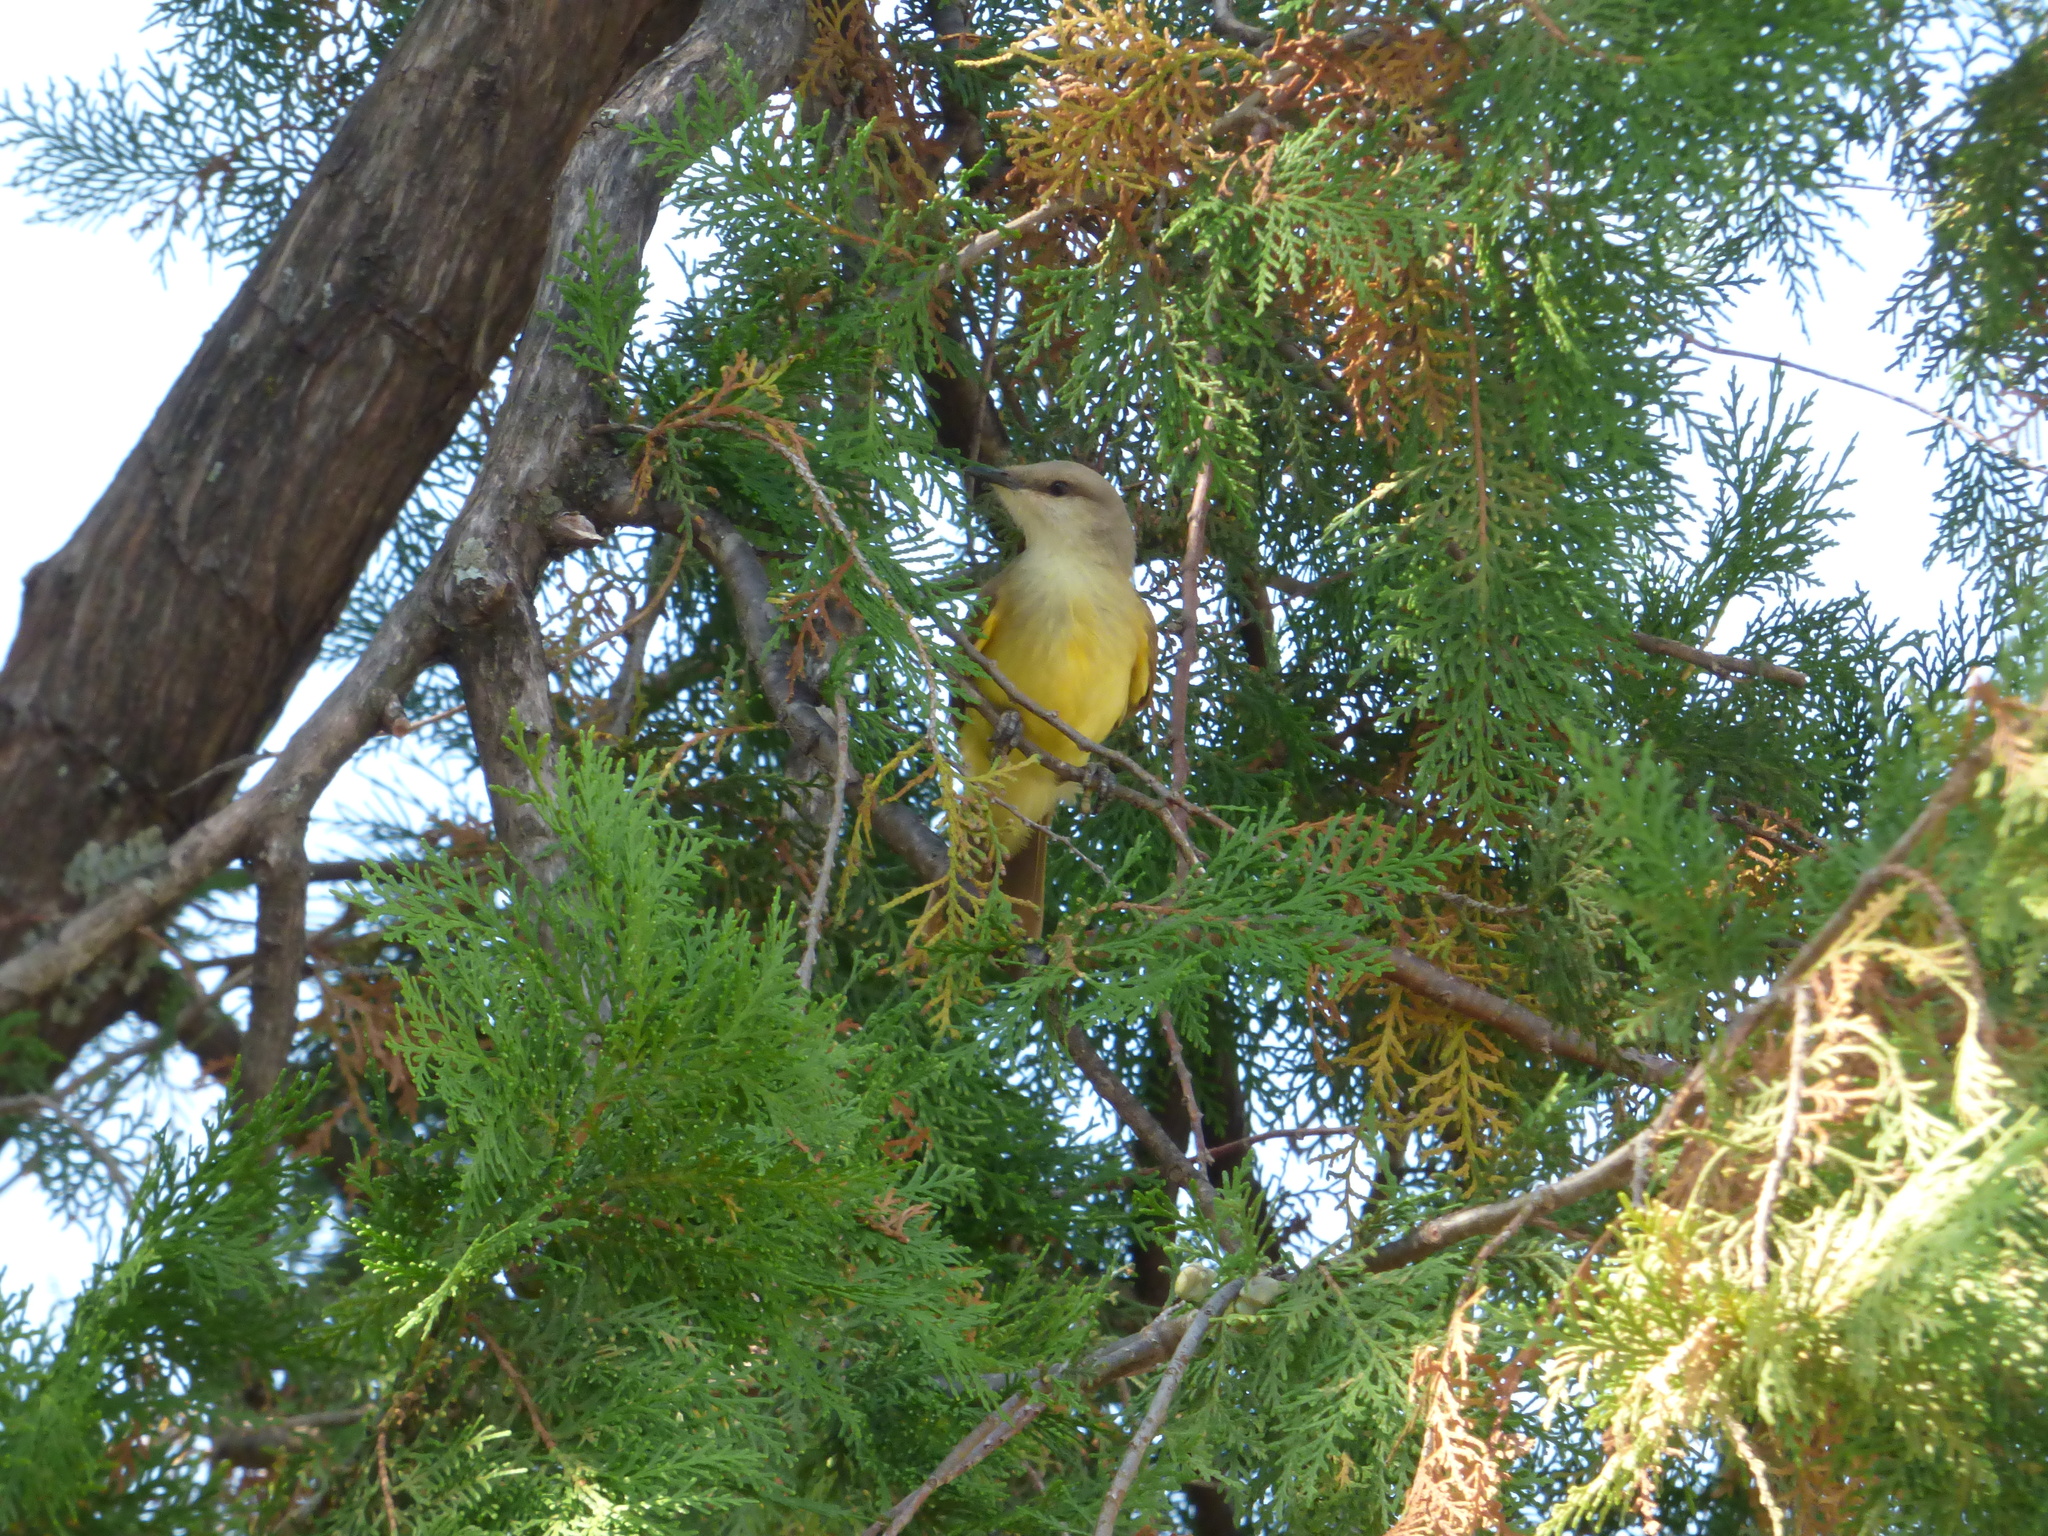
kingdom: Animalia
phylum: Chordata
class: Aves
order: Passeriformes
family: Tyrannidae
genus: Machetornis
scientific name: Machetornis rixosa
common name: Cattle tyrant
